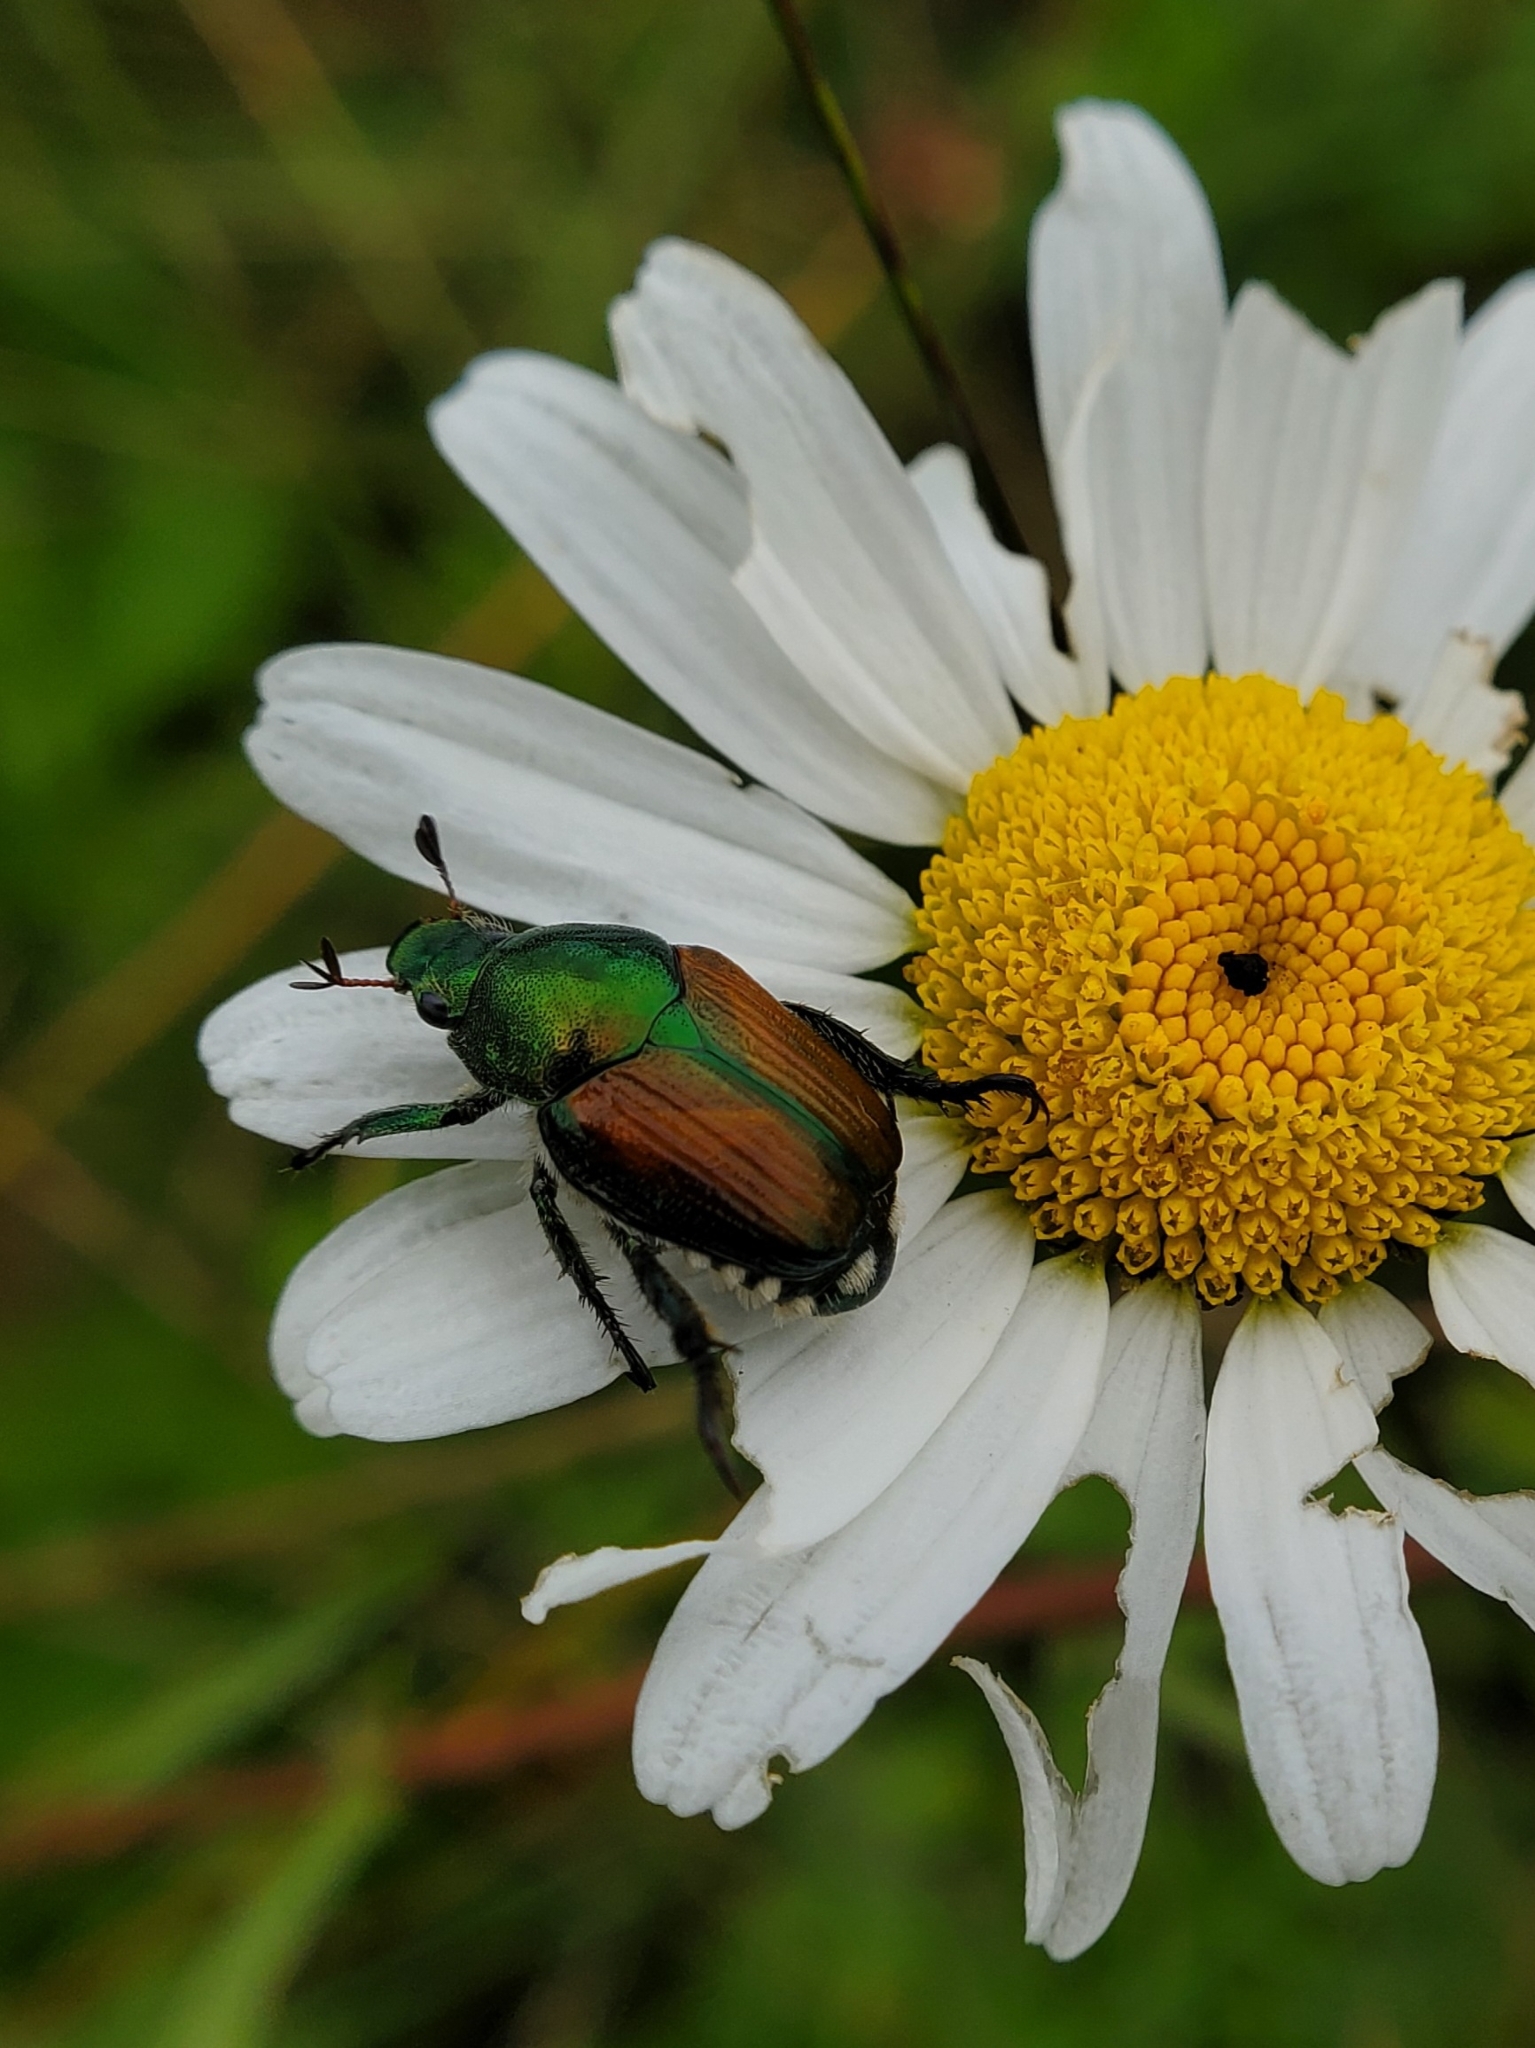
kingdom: Animalia
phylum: Arthropoda
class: Insecta
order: Coleoptera
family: Scarabaeidae
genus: Popillia
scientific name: Popillia japonica
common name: Japanese beetle
